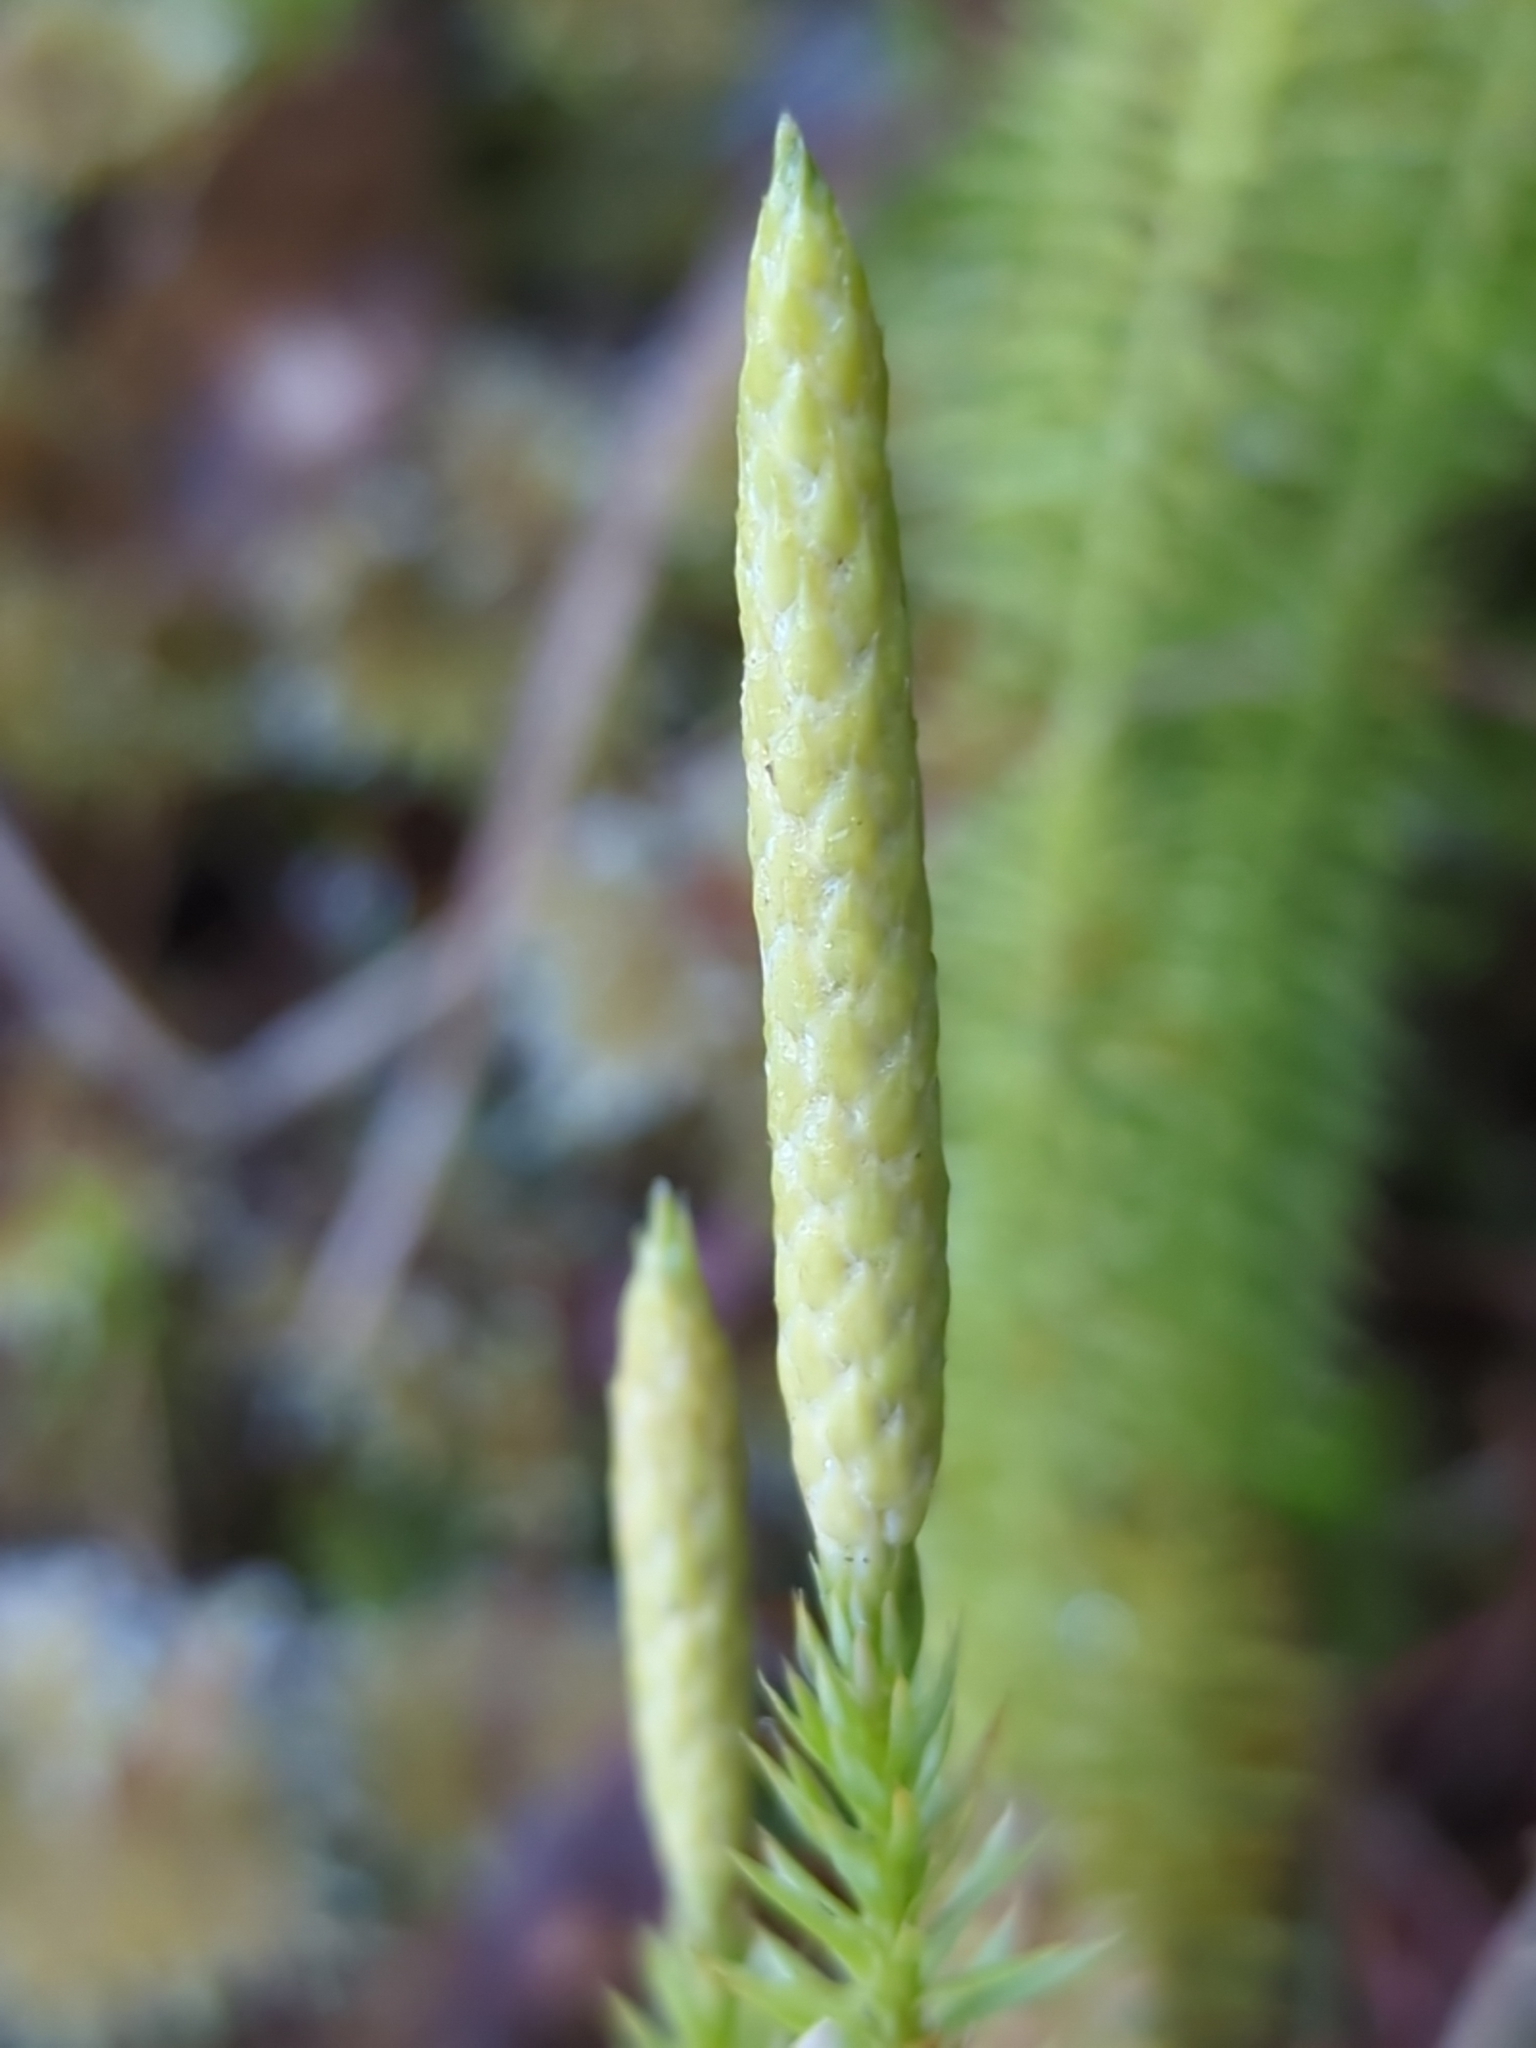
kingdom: Plantae
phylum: Tracheophyta
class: Lycopodiopsida
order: Lycopodiales
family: Lycopodiaceae
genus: Spinulum
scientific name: Spinulum annotinum
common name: Interrupted club-moss
